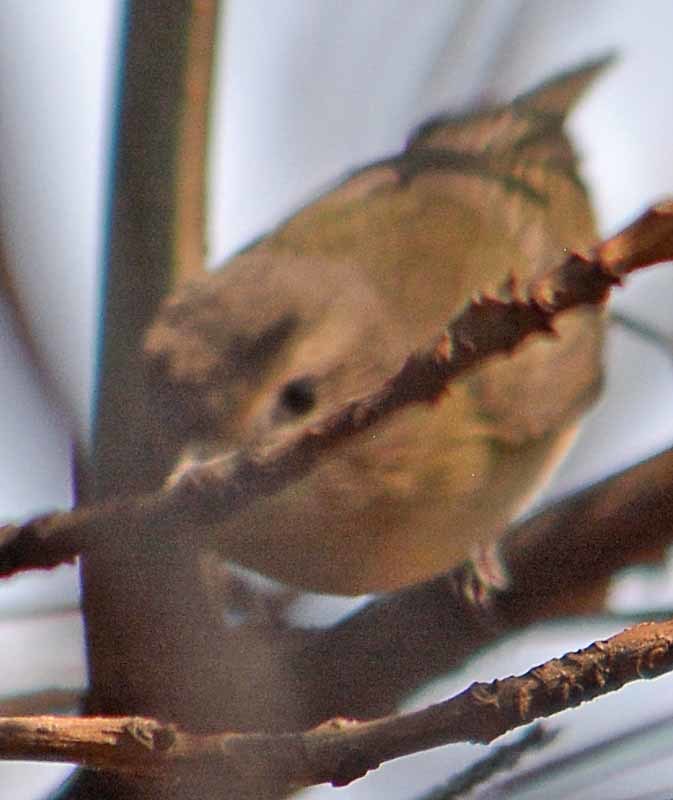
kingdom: Animalia
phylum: Chordata
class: Aves
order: Passeriformes
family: Vireonidae
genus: Vireo
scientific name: Vireo gilvus
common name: Warbling vireo
